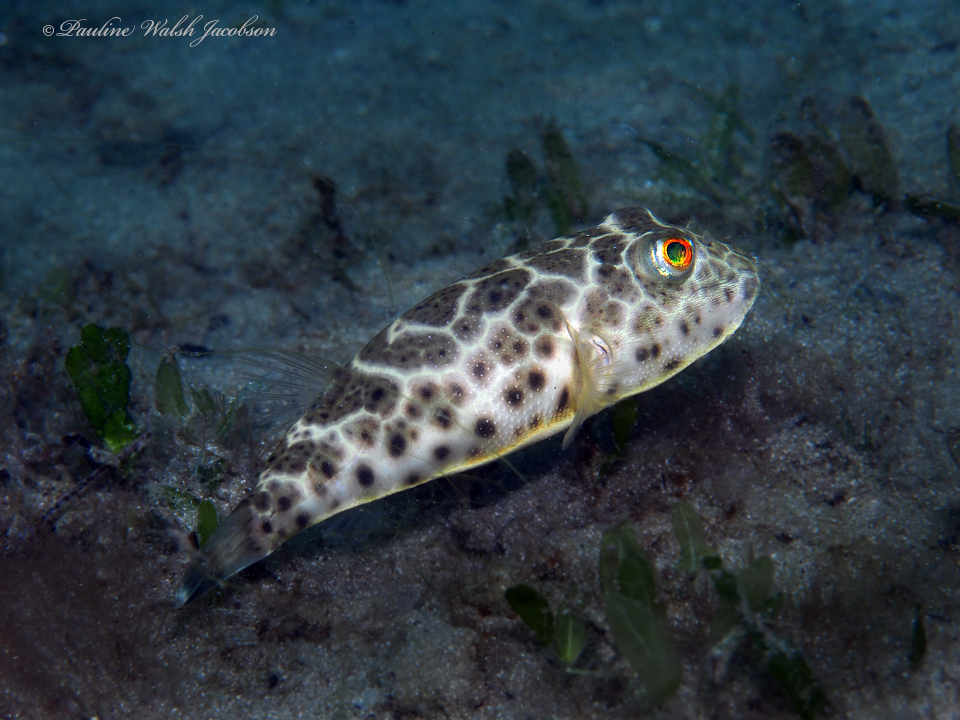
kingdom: Animalia
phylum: Chordata
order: Tetraodontiformes
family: Tetraodontidae
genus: Sphoeroides
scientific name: Sphoeroides testudineus
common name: Checkered puffer
